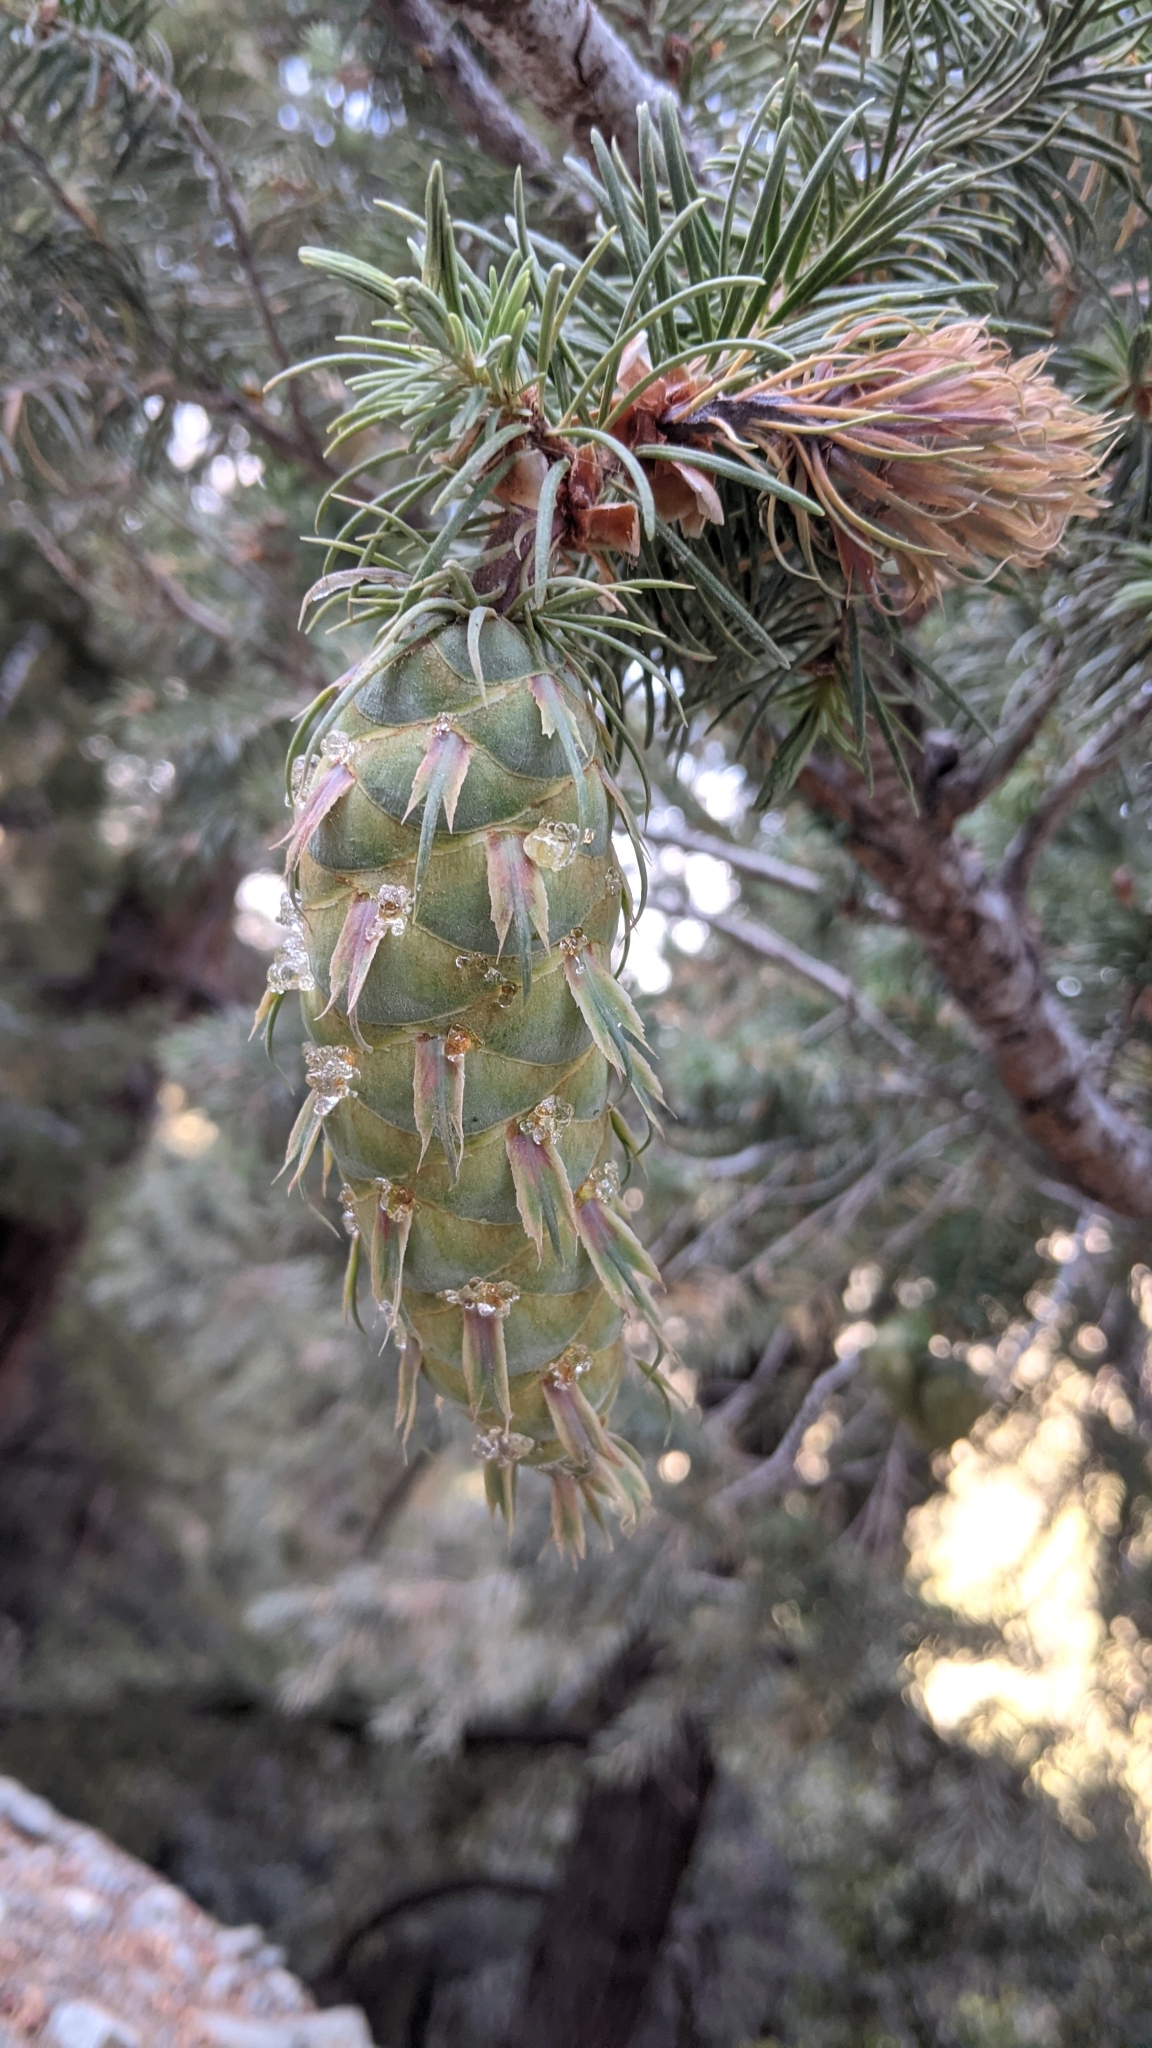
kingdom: Plantae
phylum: Tracheophyta
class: Pinopsida
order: Pinales
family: Pinaceae
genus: Pseudotsuga
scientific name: Pseudotsuga macrocarpa
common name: Big-cone douglas-fir
